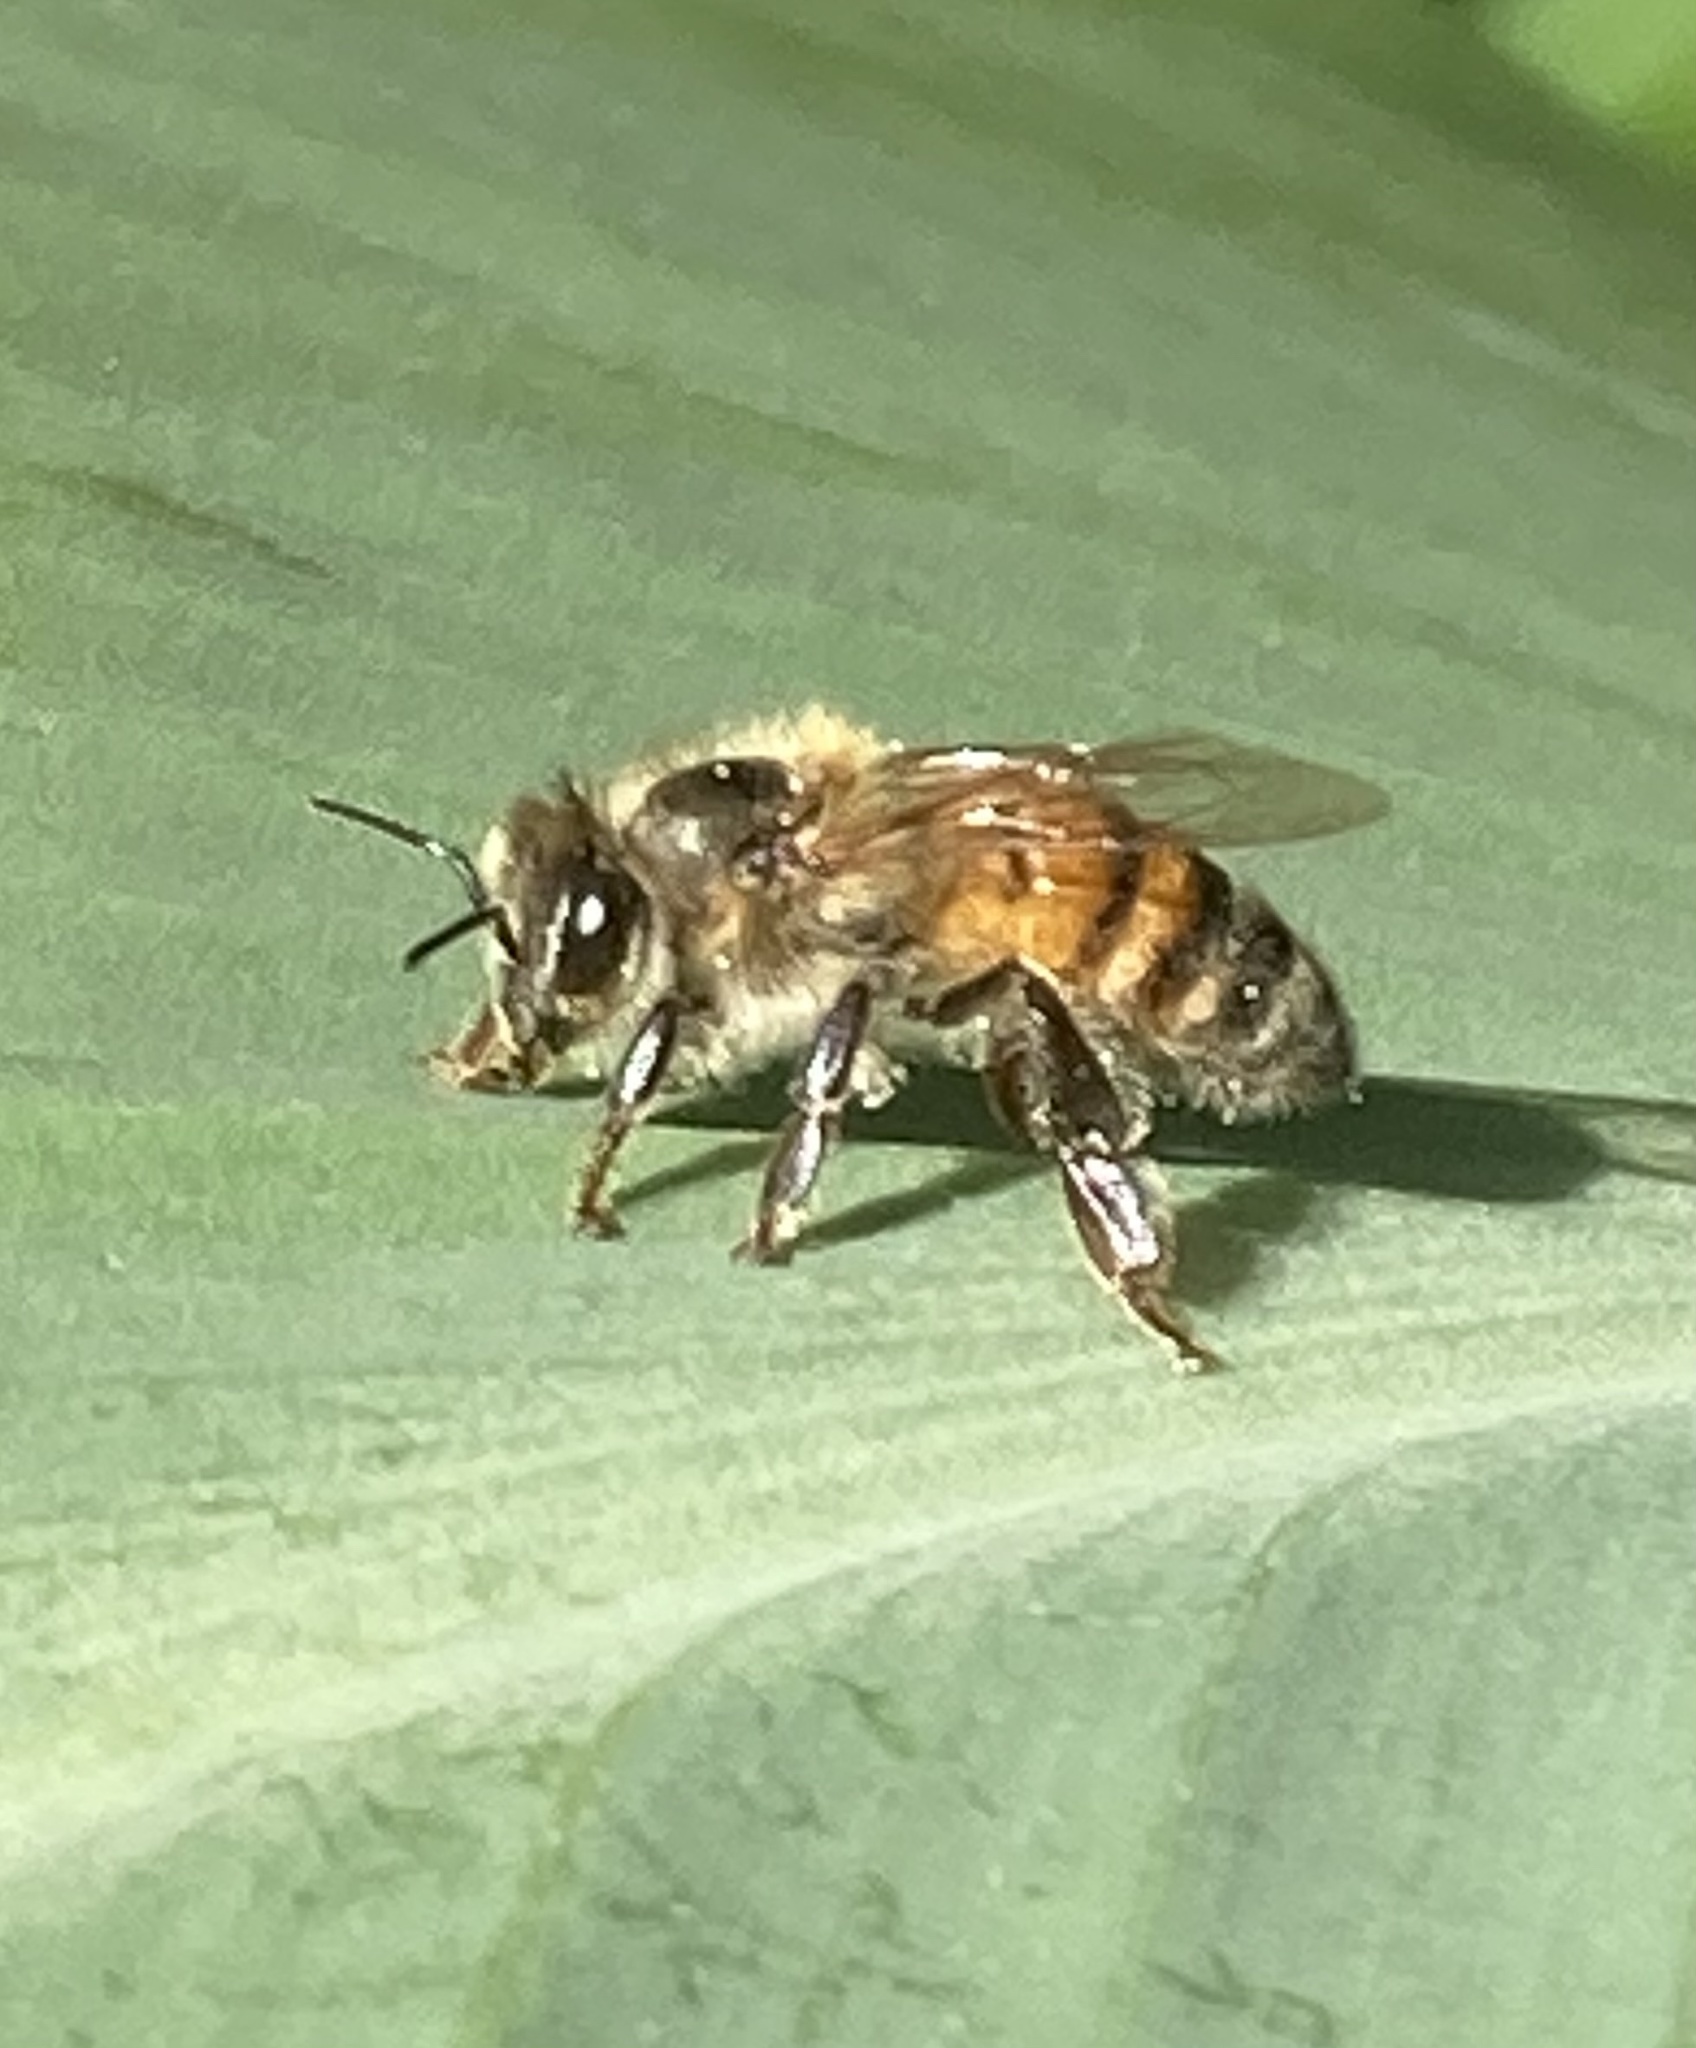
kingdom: Animalia
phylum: Arthropoda
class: Insecta
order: Hymenoptera
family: Apidae
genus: Apis
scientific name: Apis mellifera
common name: Honey bee
